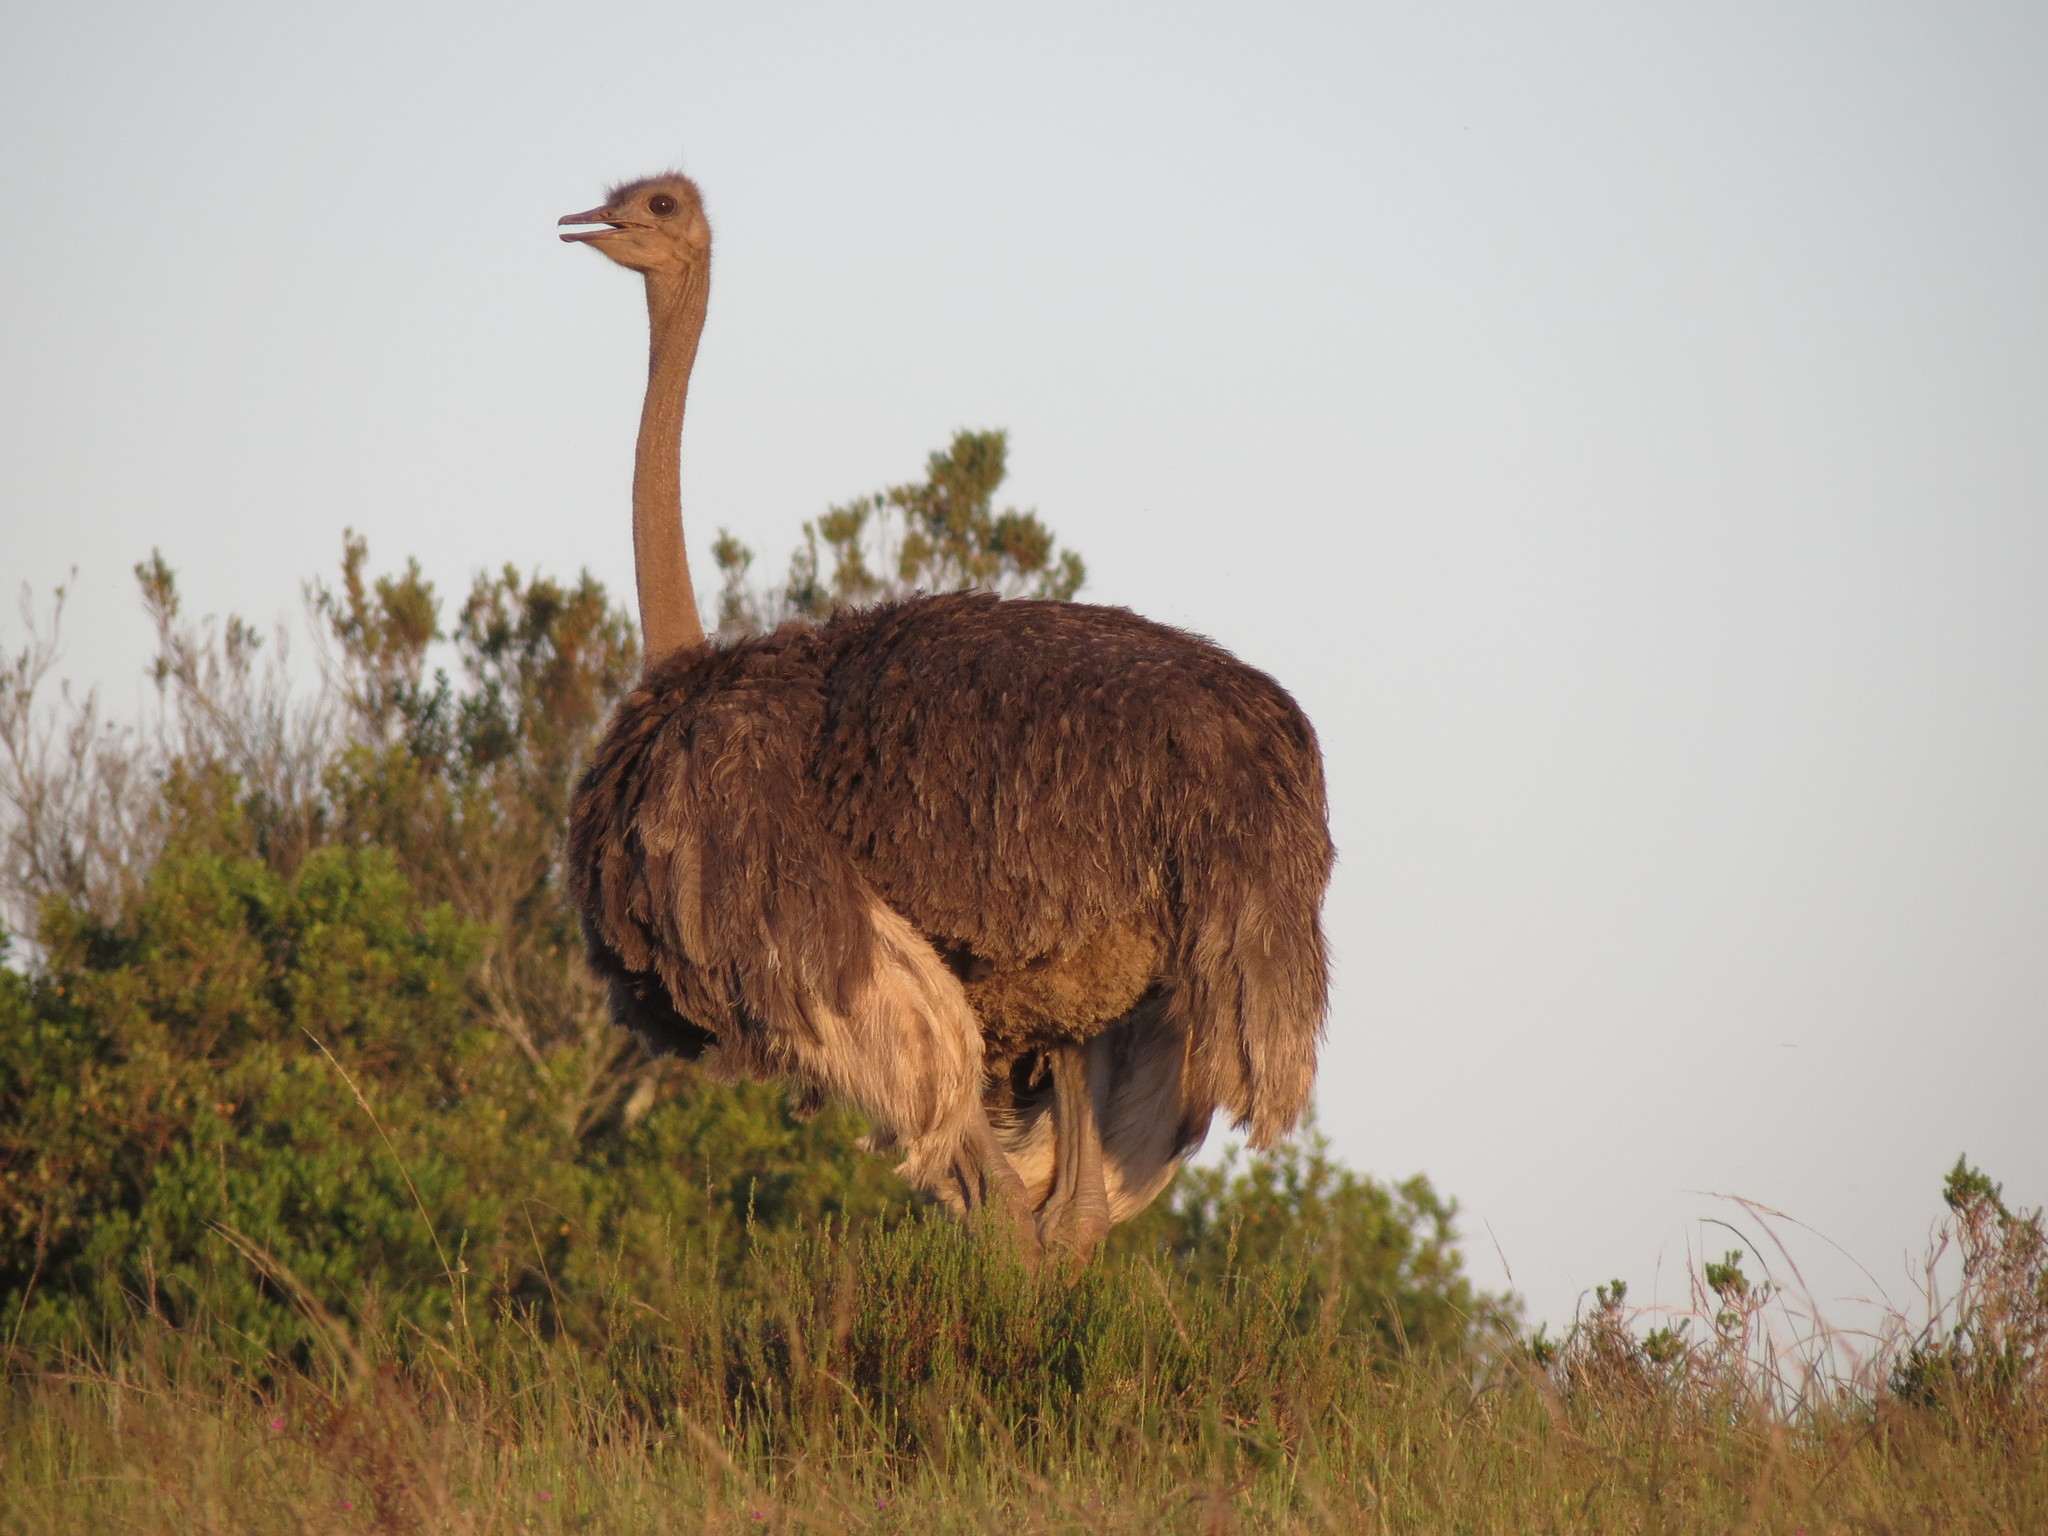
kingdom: Animalia
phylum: Chordata
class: Aves
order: Struthioniformes
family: Struthionidae
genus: Struthio
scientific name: Struthio camelus
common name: Common ostrich
